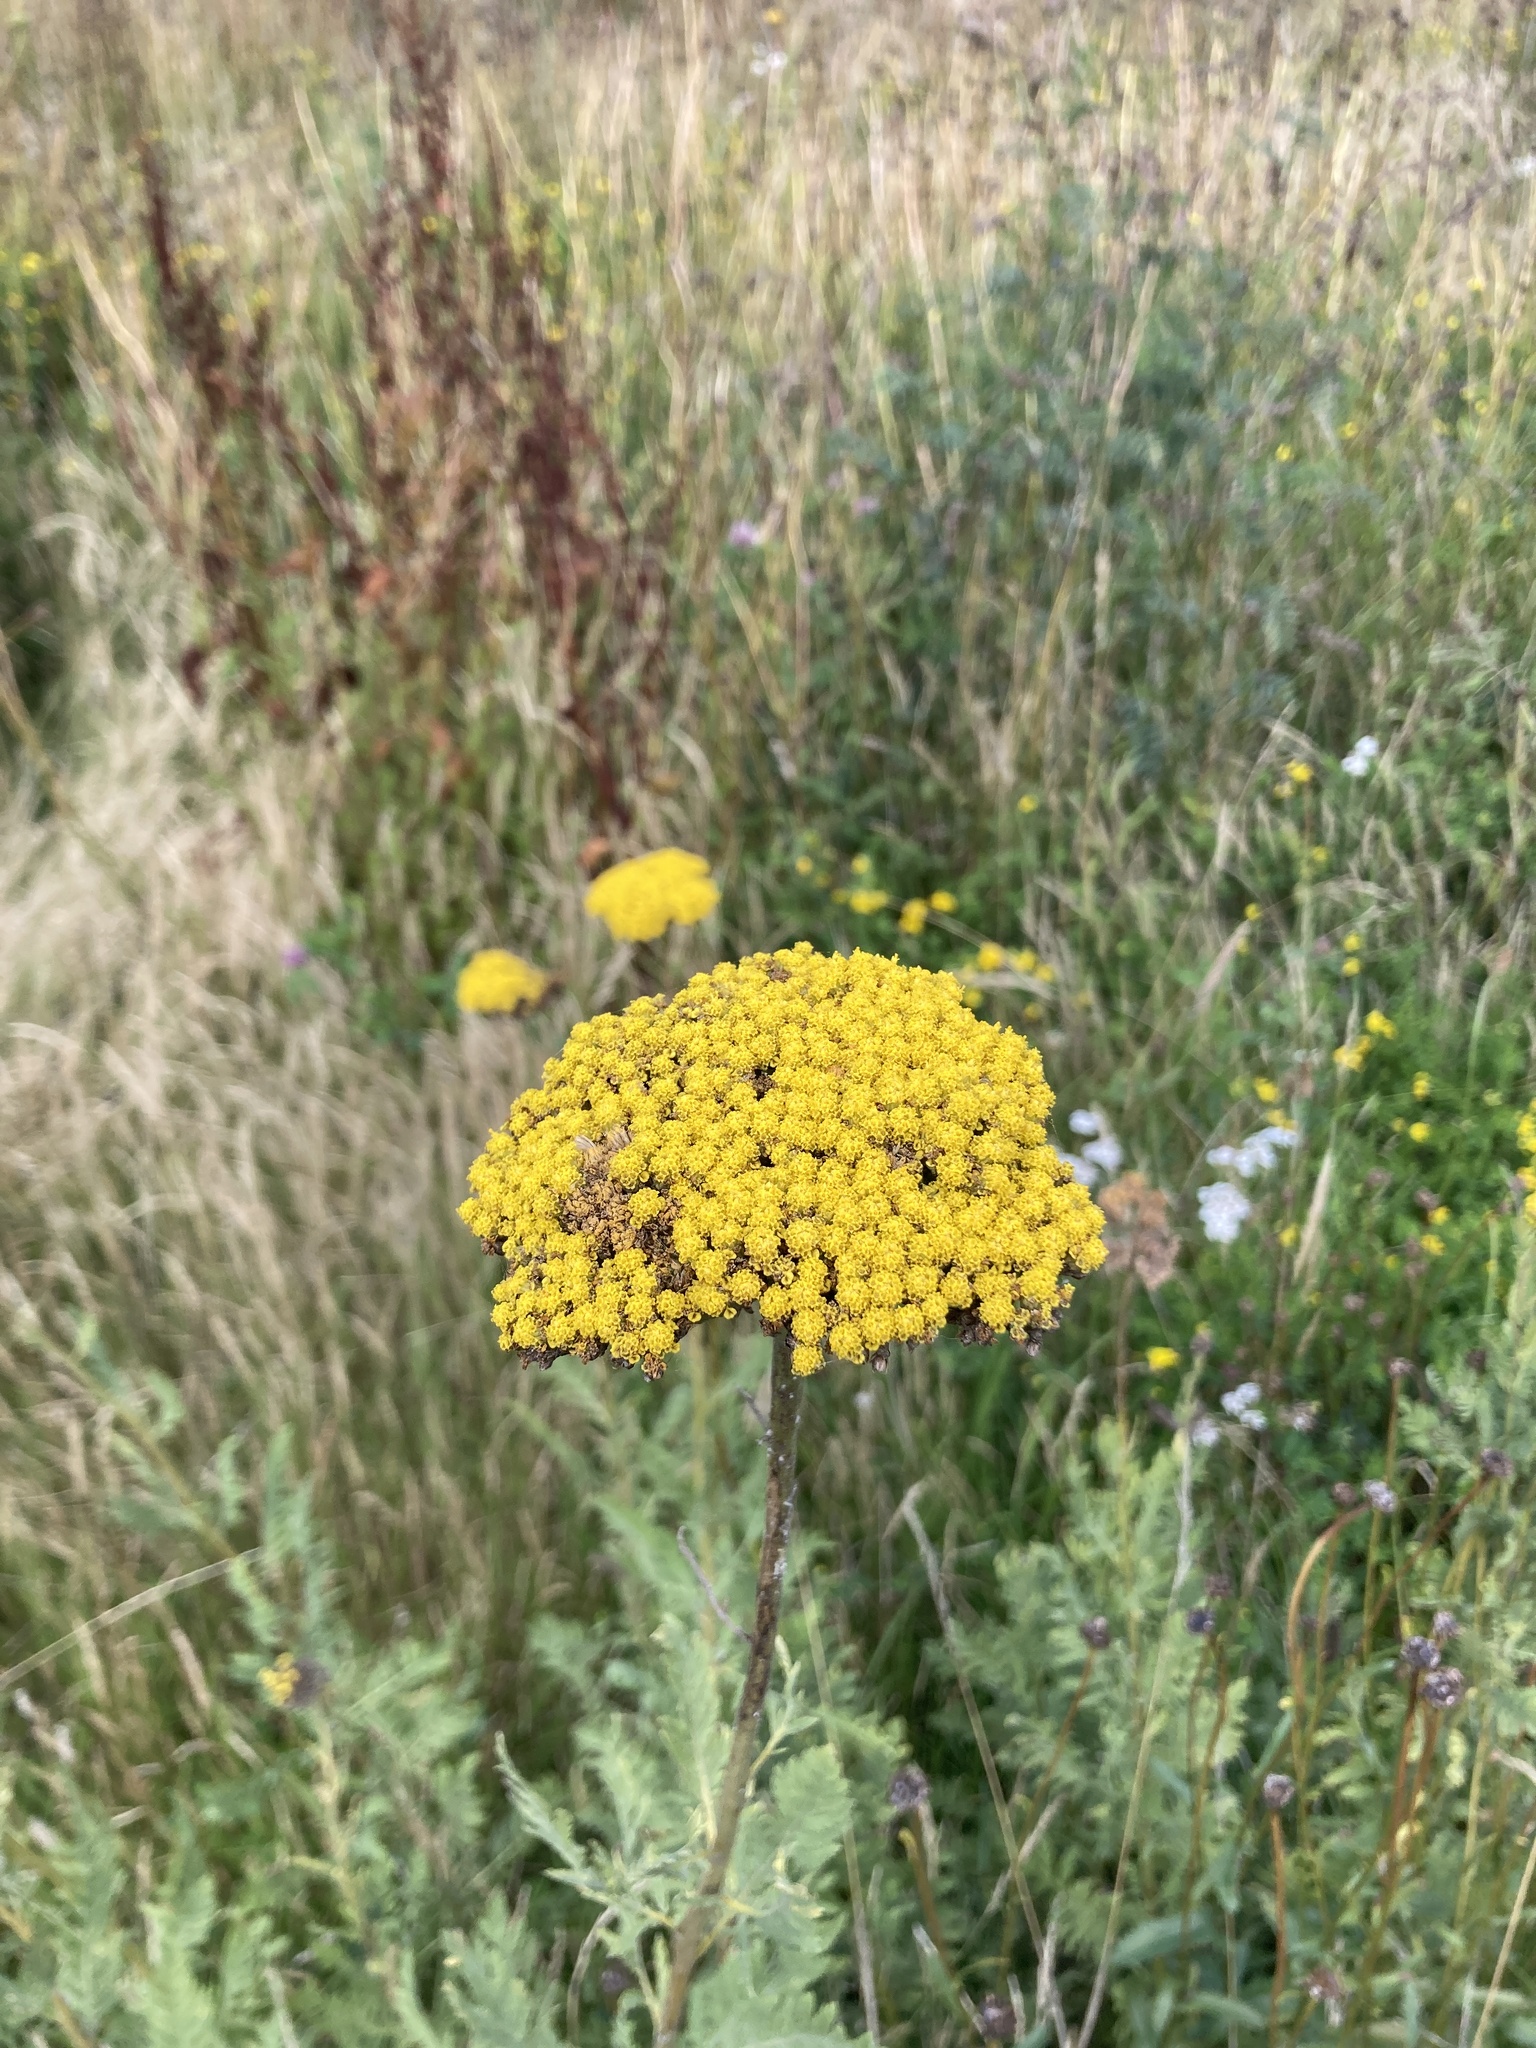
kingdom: Plantae
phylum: Tracheophyta
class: Magnoliopsida
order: Asterales
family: Asteraceae
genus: Achillea
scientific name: Achillea filipendulina
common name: Fernleaf yarrow
